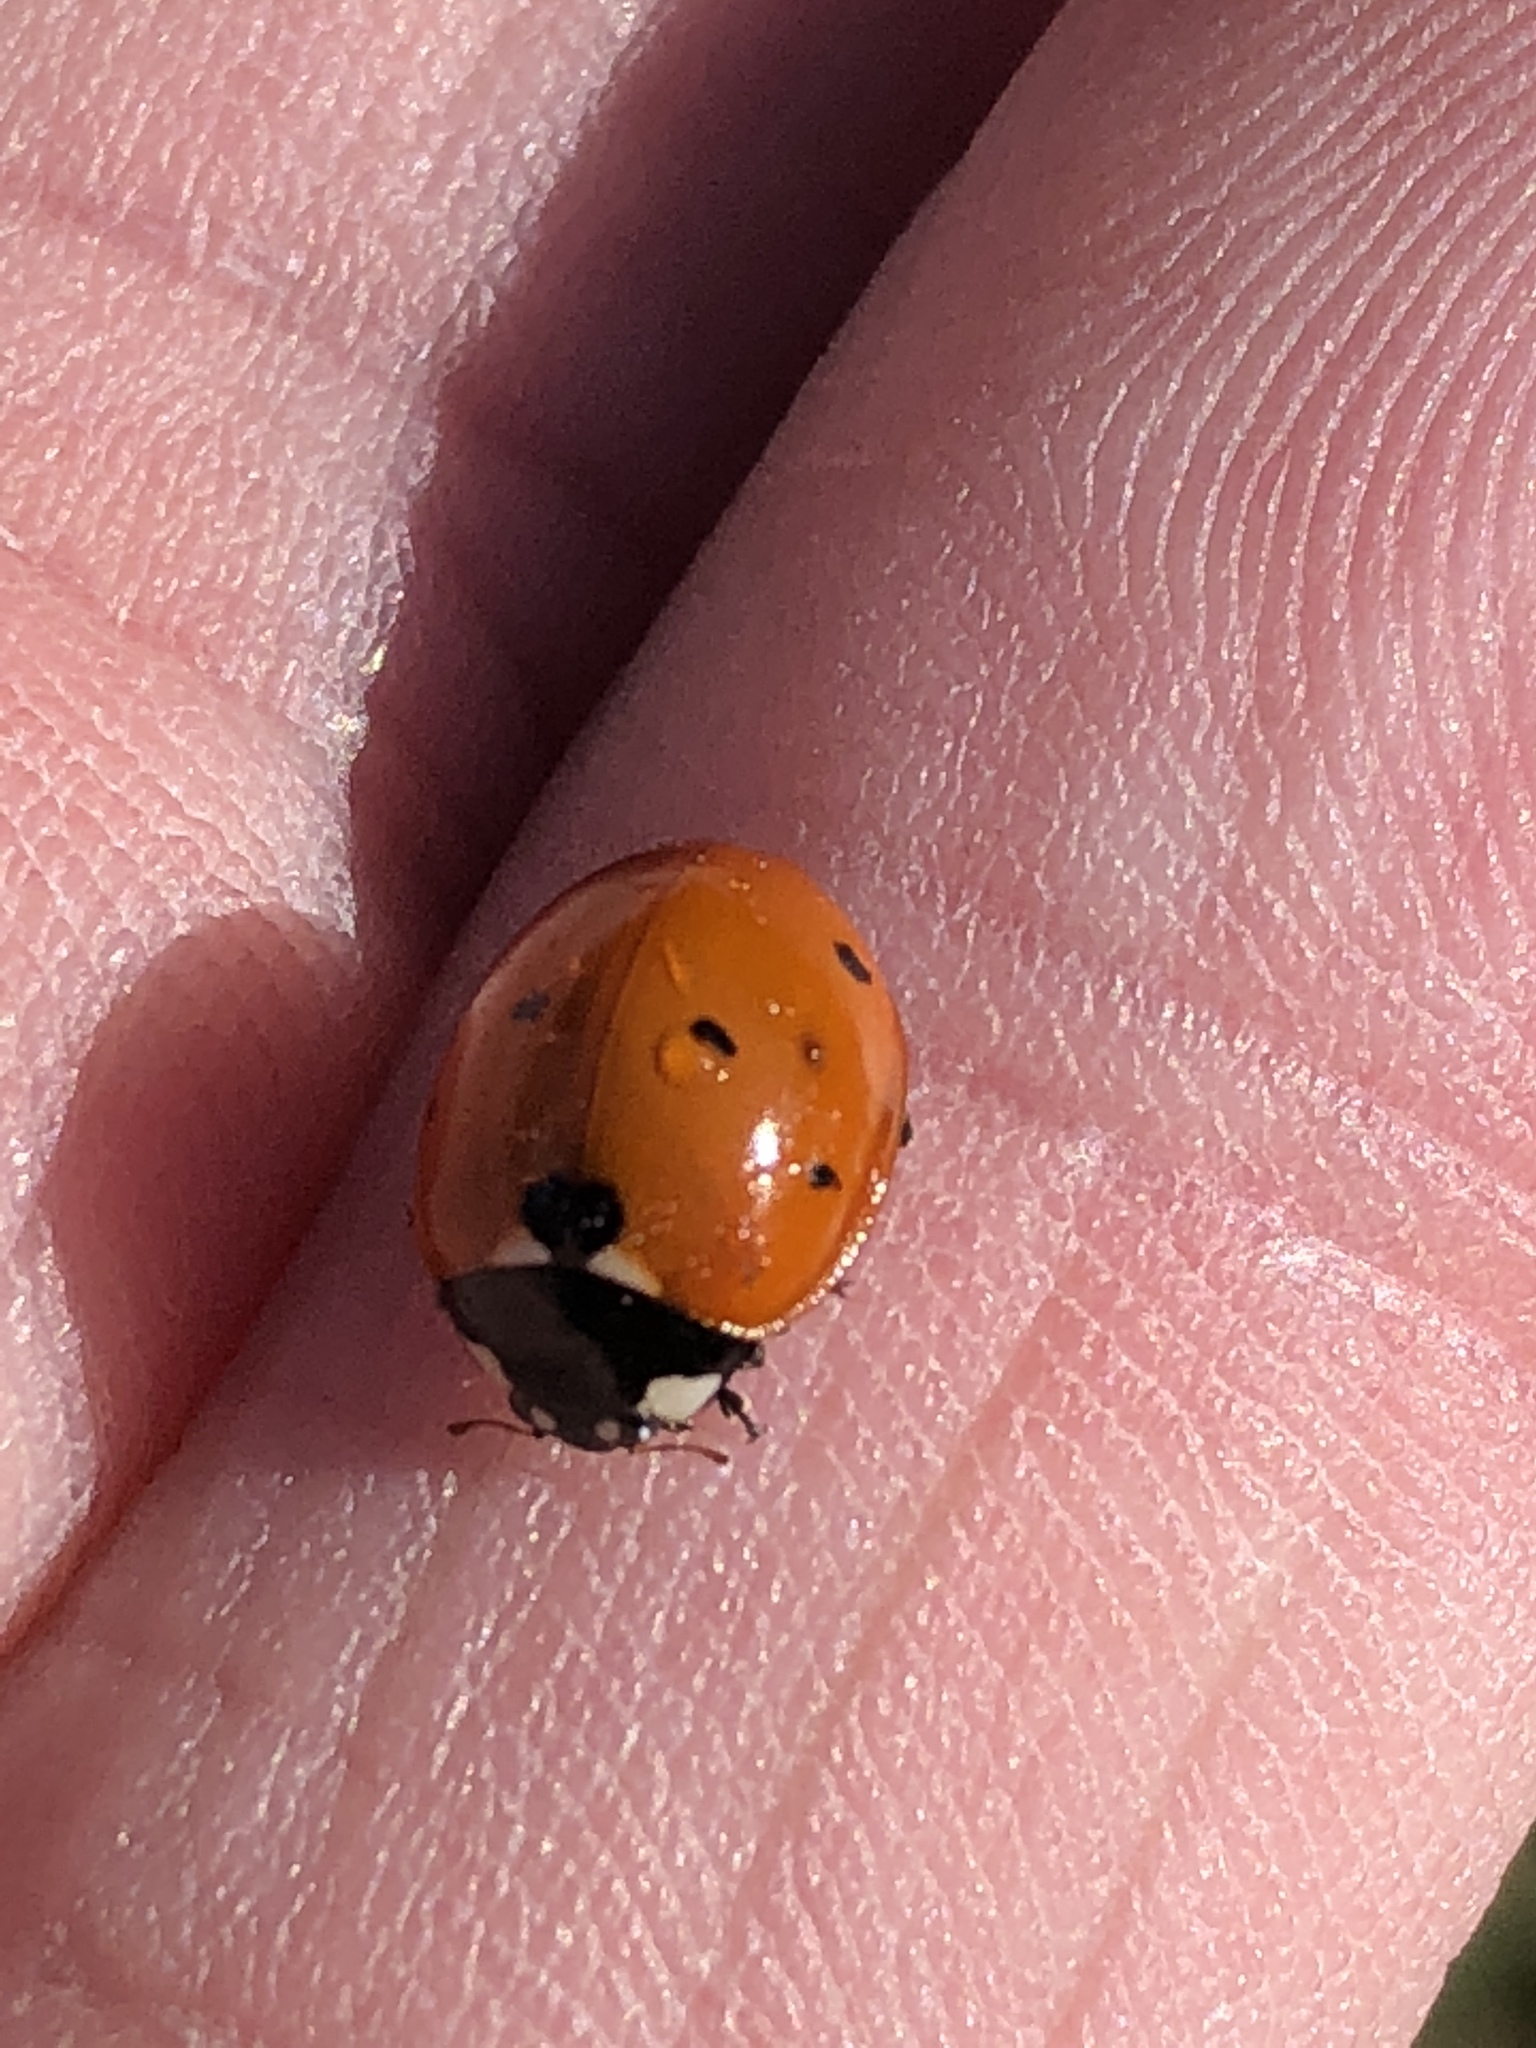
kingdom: Animalia
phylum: Arthropoda
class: Insecta
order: Coleoptera
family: Coccinellidae
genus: Coccinella
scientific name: Coccinella septempunctata
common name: Sevenspotted lady beetle
